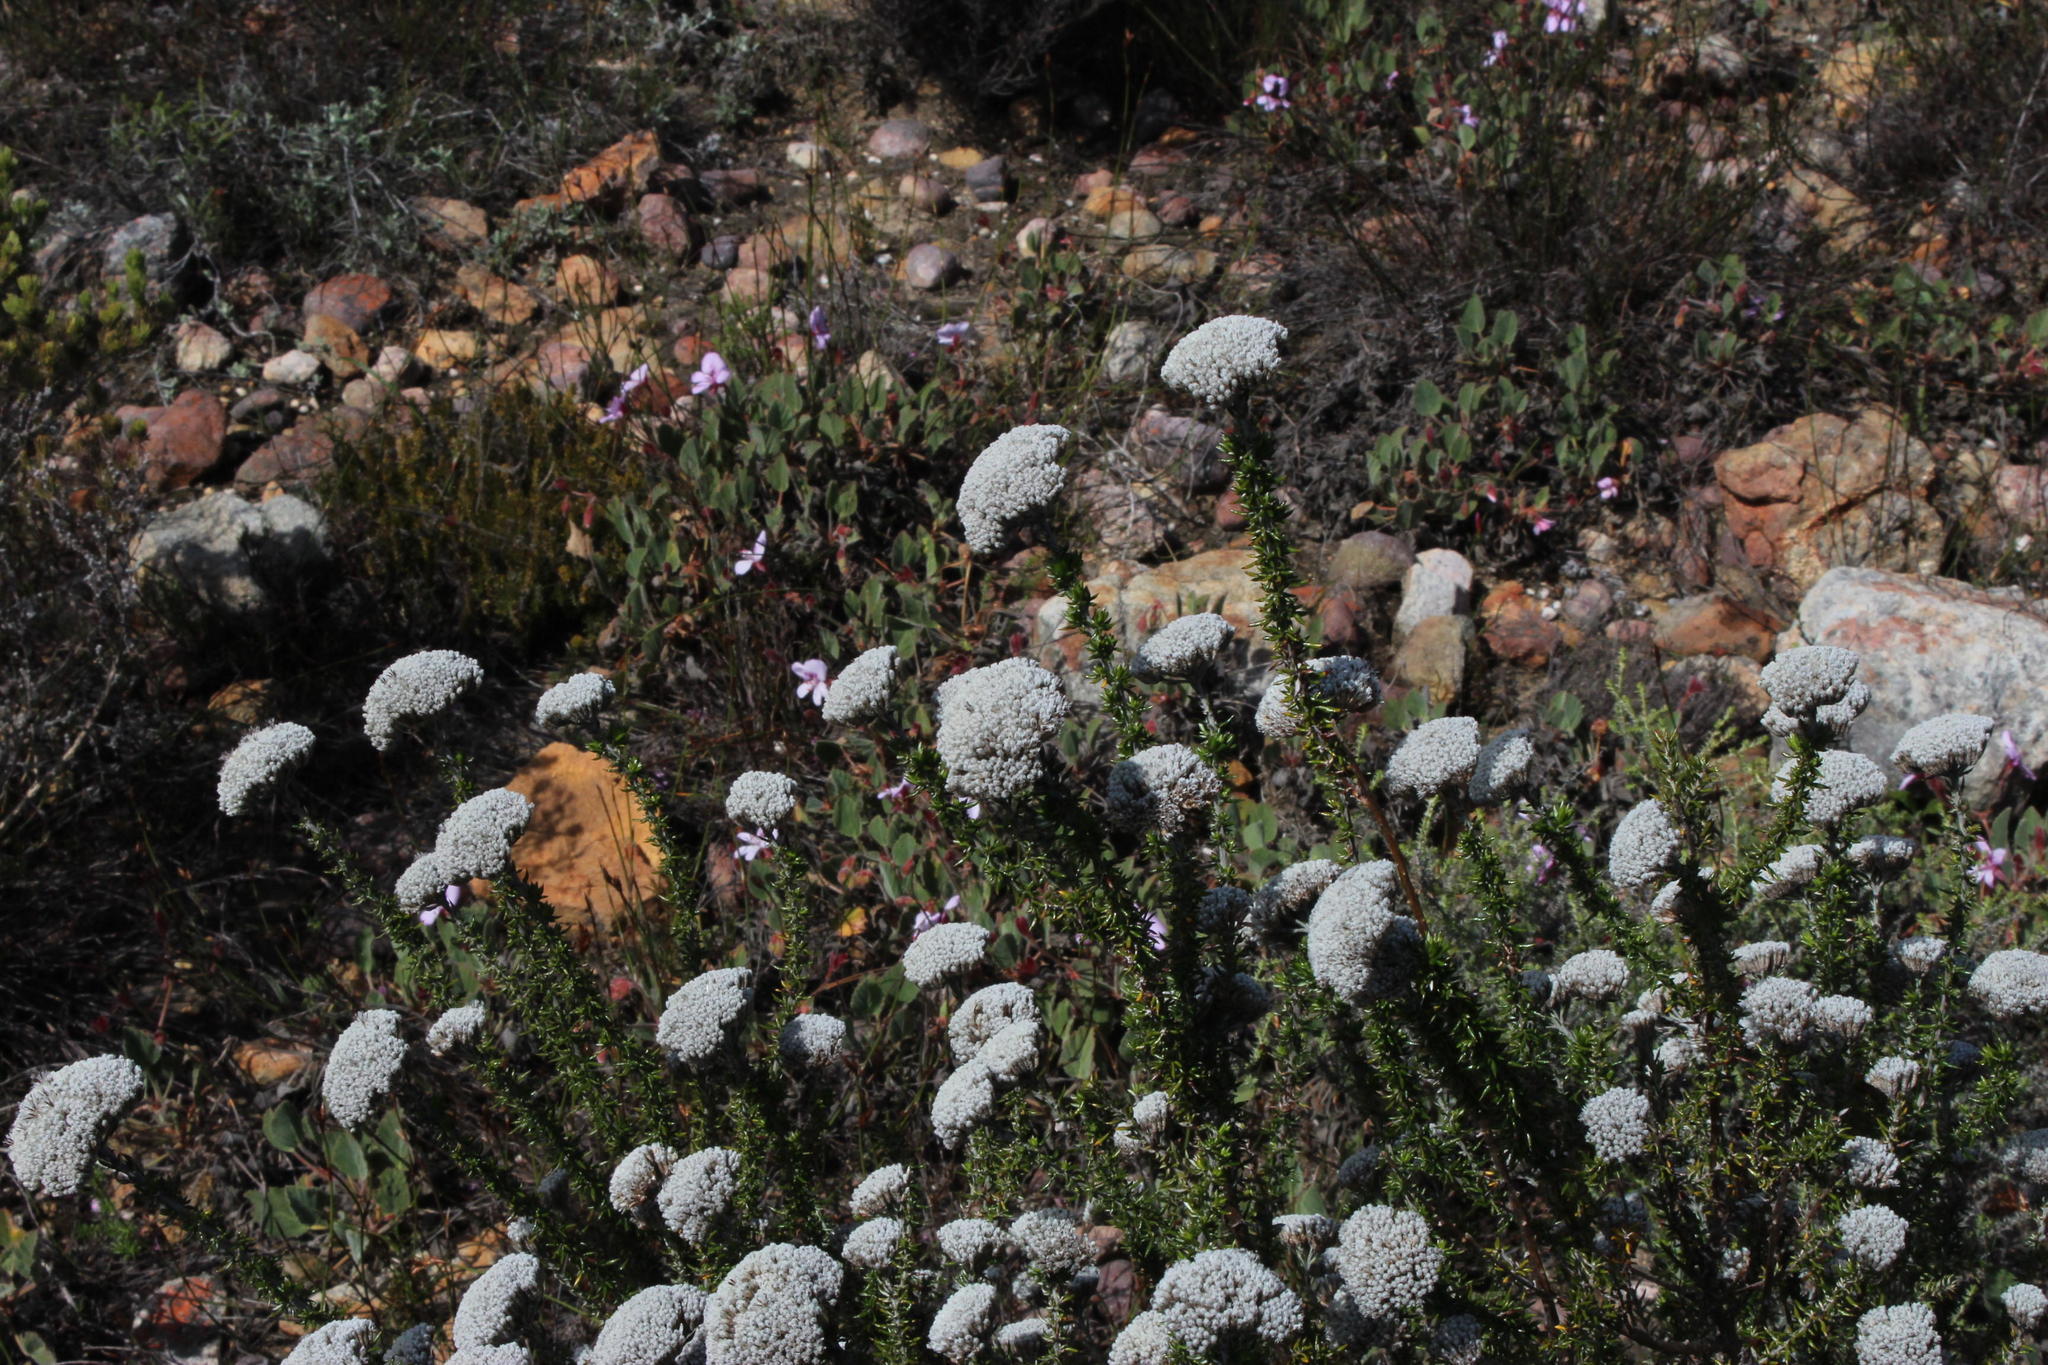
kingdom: Plantae
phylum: Tracheophyta
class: Magnoliopsida
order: Asterales
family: Asteraceae
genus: Metalasia
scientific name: Metalasia densa
